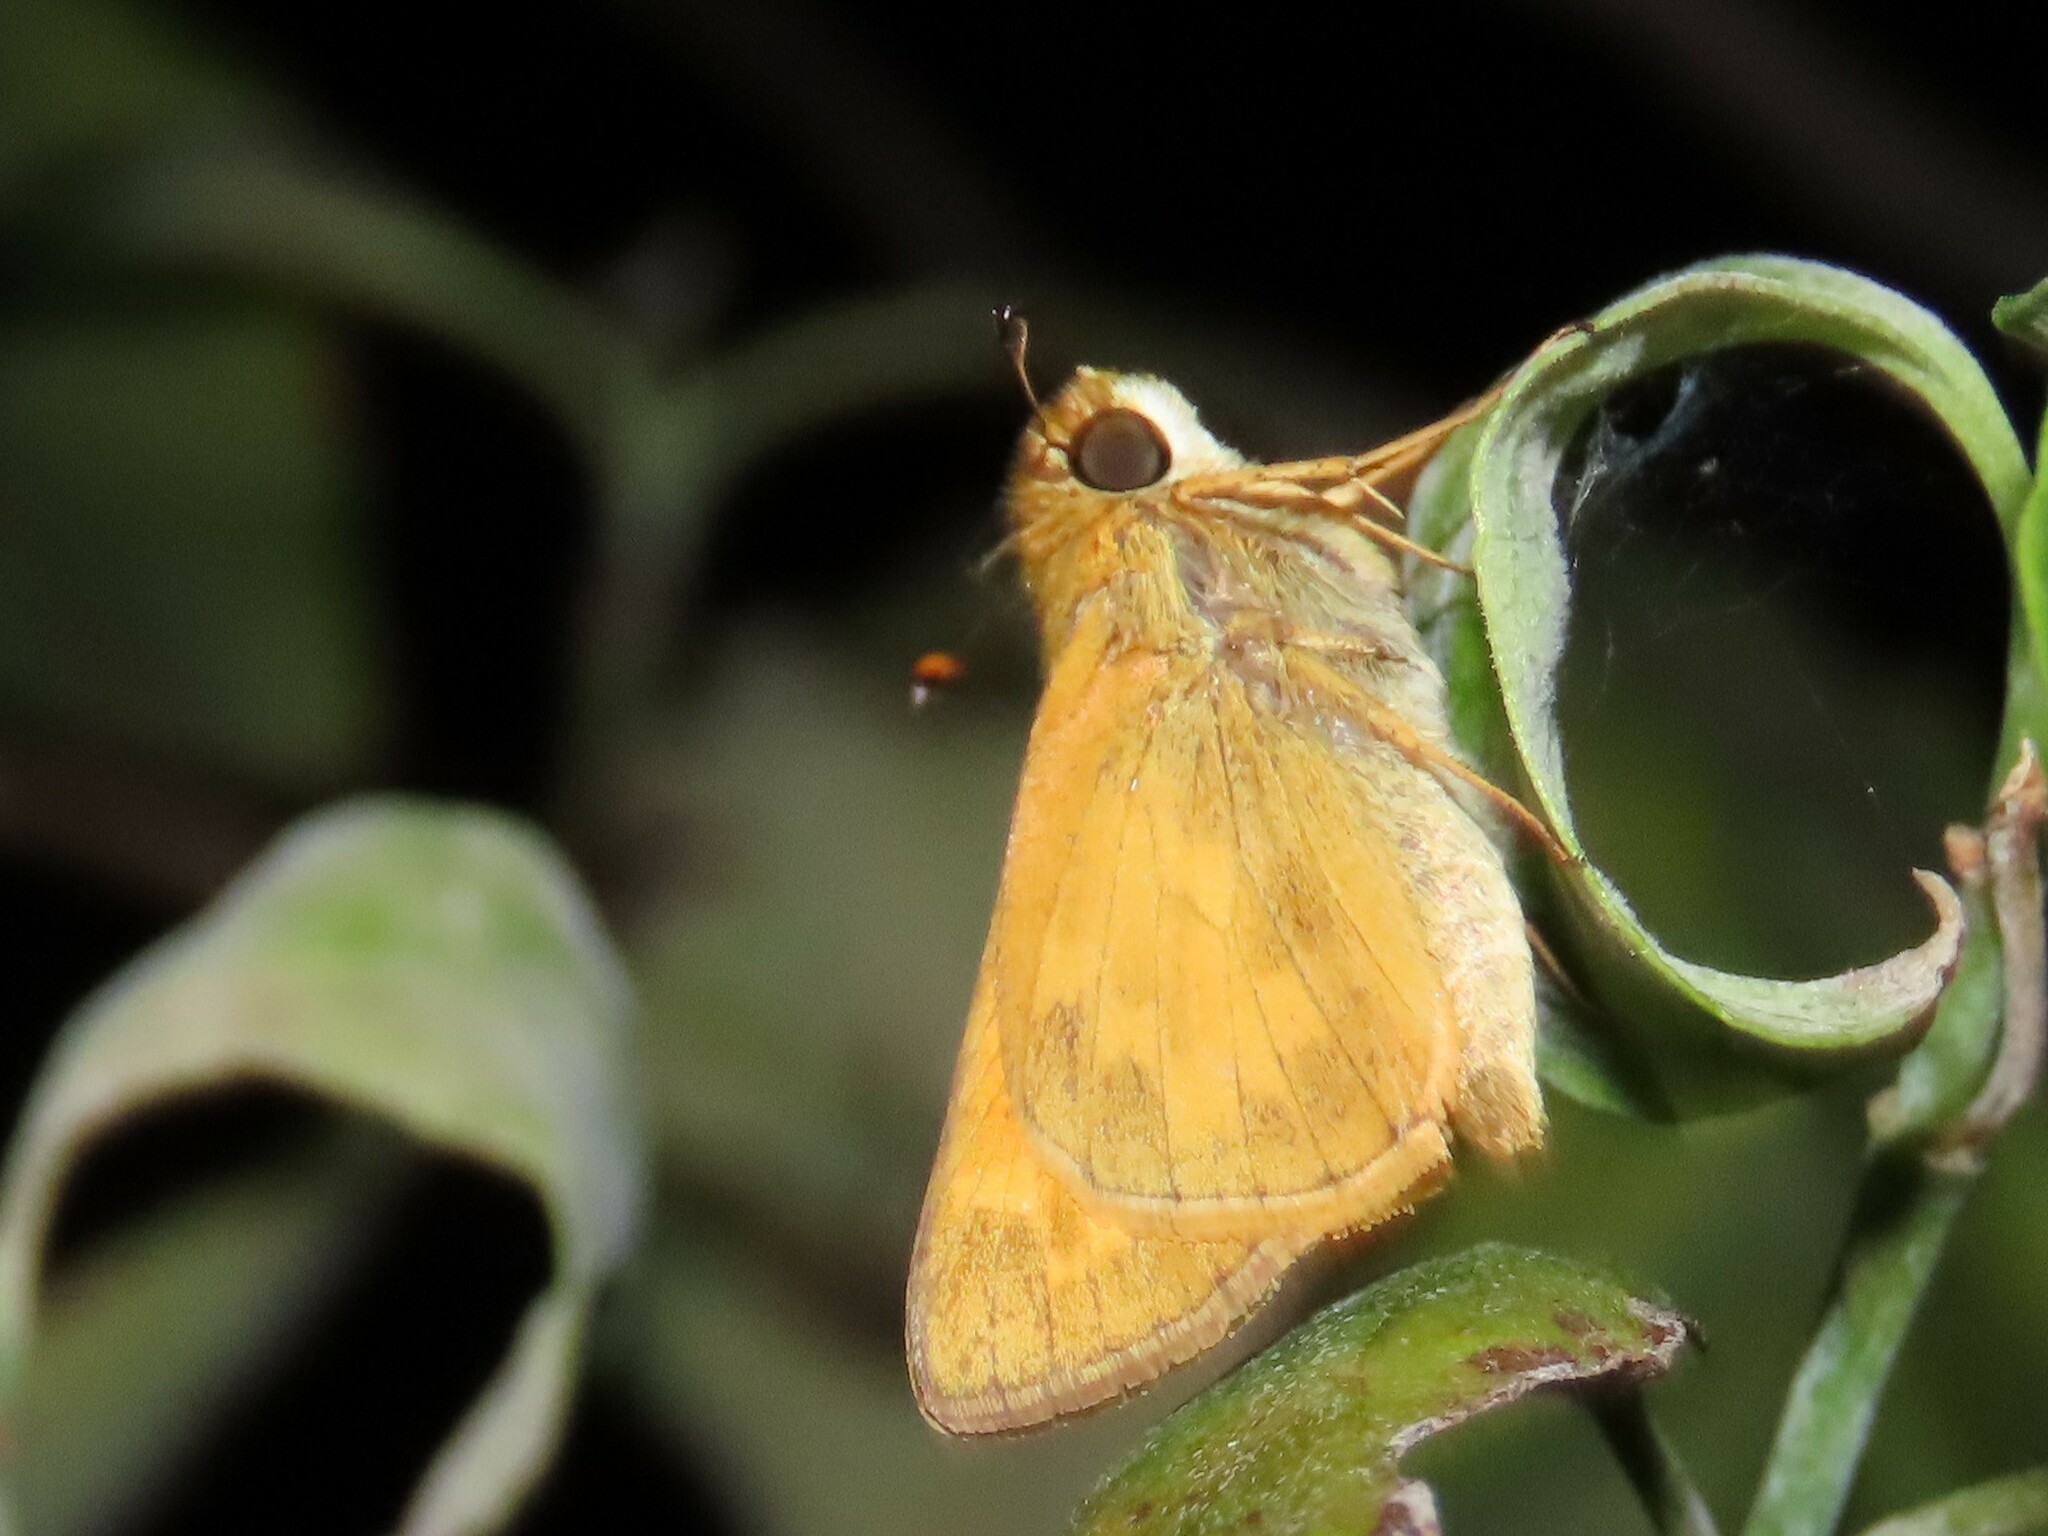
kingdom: Animalia
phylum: Arthropoda
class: Insecta
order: Lepidoptera
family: Hesperiidae
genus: Atalopedes
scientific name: Atalopedes
